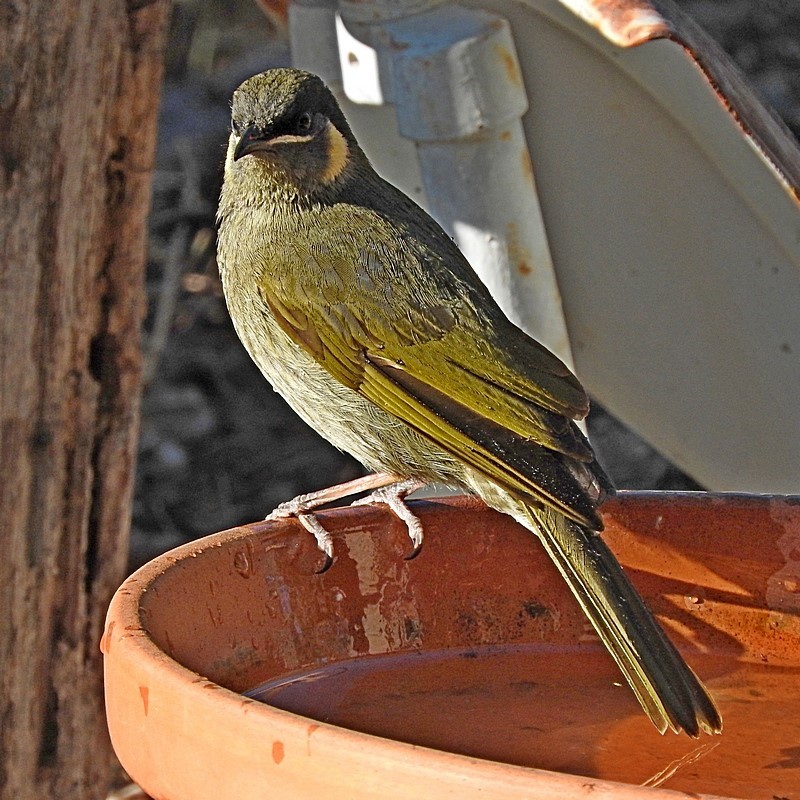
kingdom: Animalia
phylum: Chordata
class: Aves
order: Passeriformes
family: Meliphagidae
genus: Meliphaga
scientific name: Meliphaga lewinii
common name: Lewin's honeyeater
